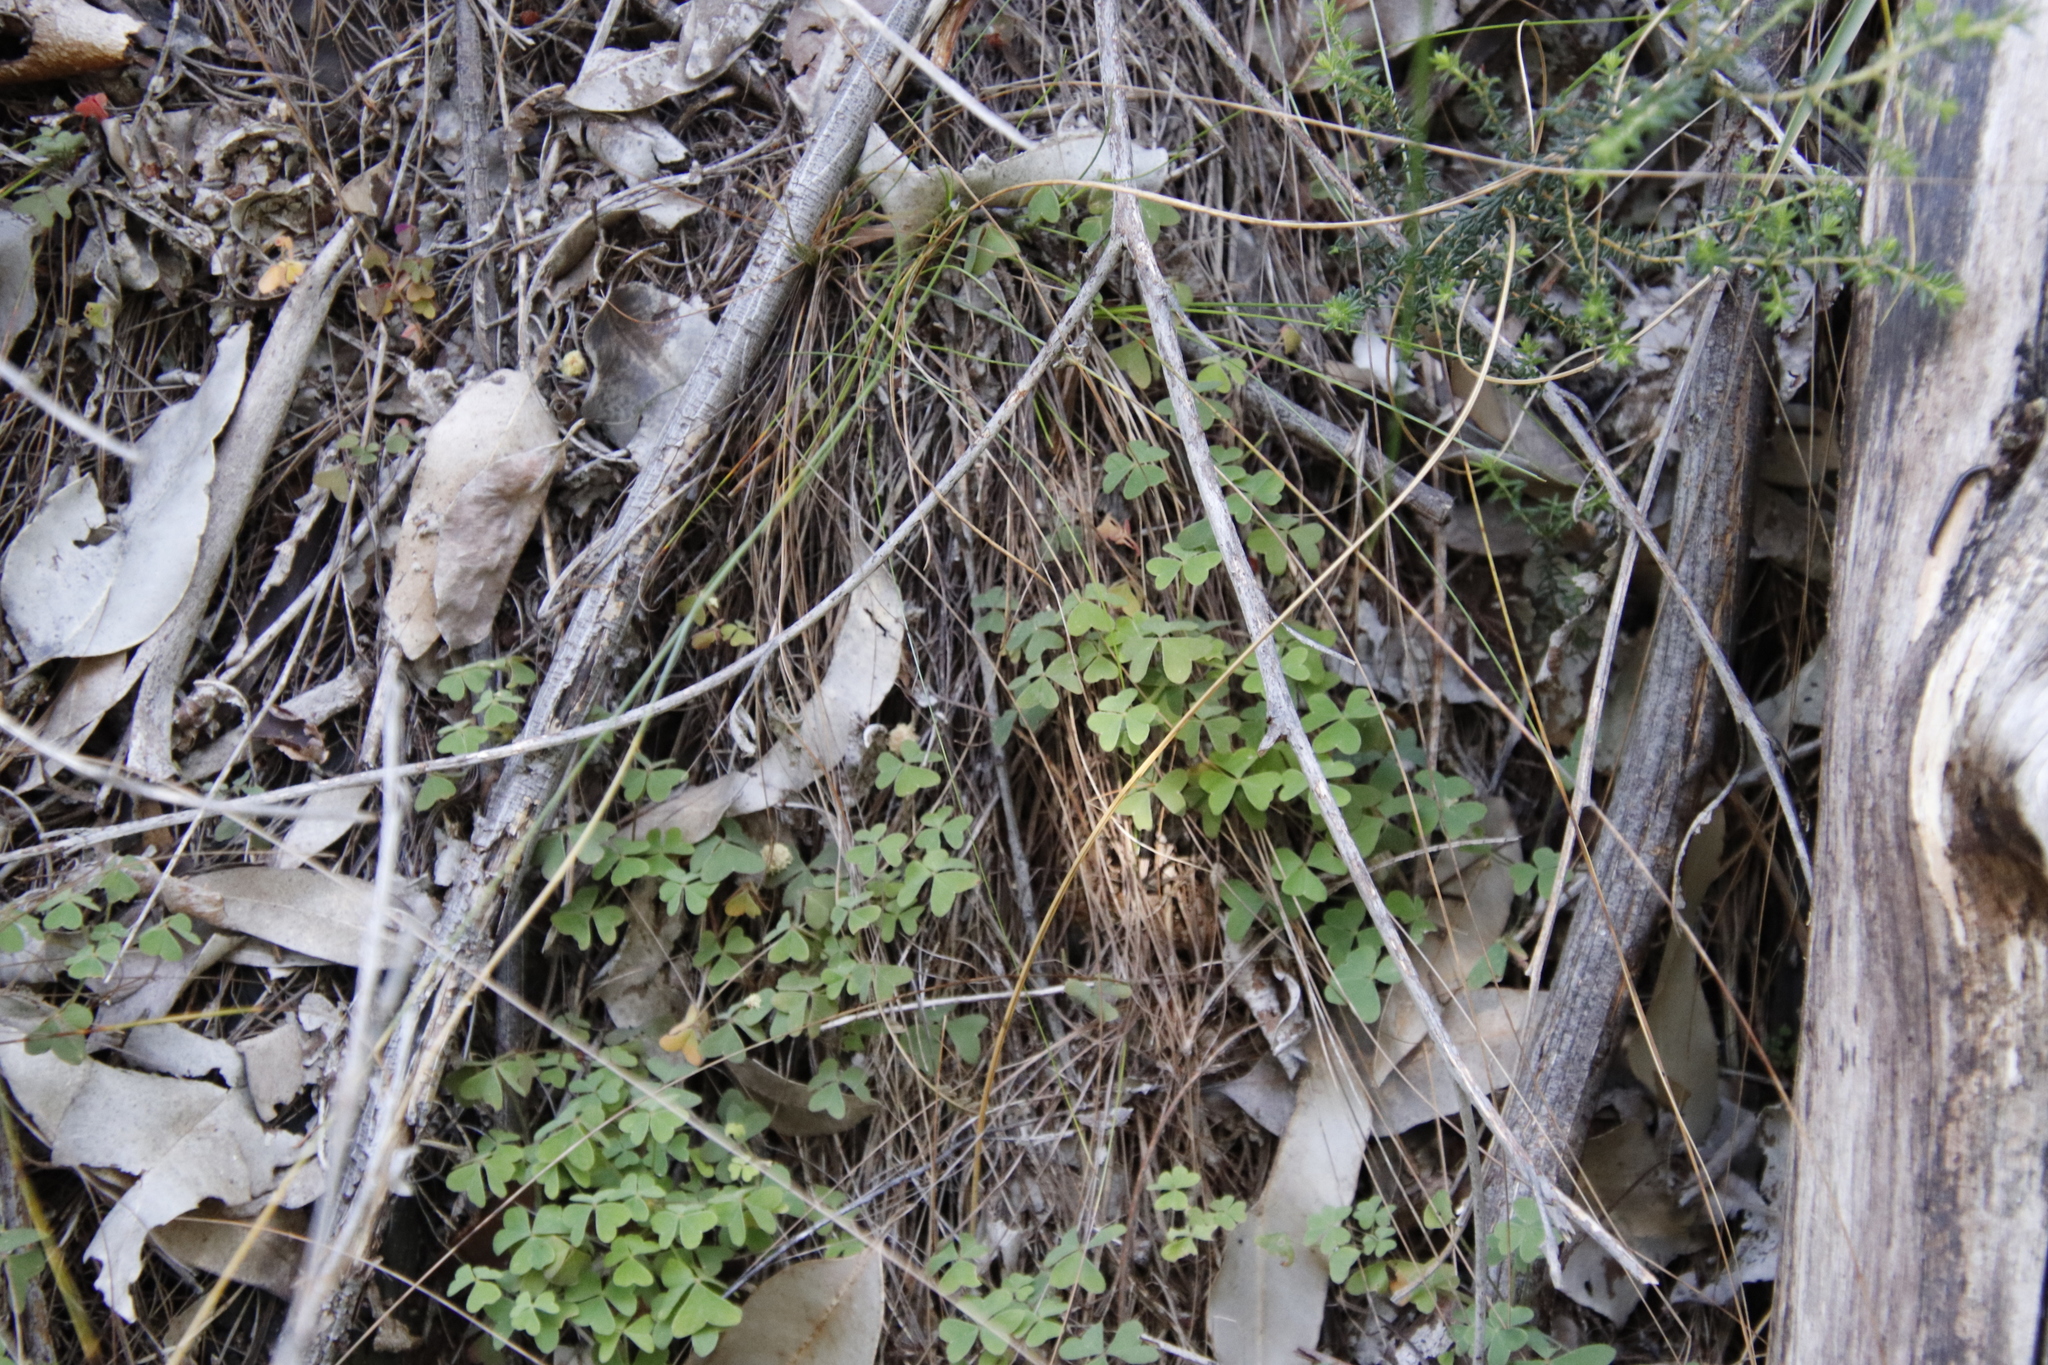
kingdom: Plantae
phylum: Tracheophyta
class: Magnoliopsida
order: Oxalidales
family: Oxalidaceae
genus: Oxalis
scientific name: Oxalis pes-caprae
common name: Bermuda-buttercup
